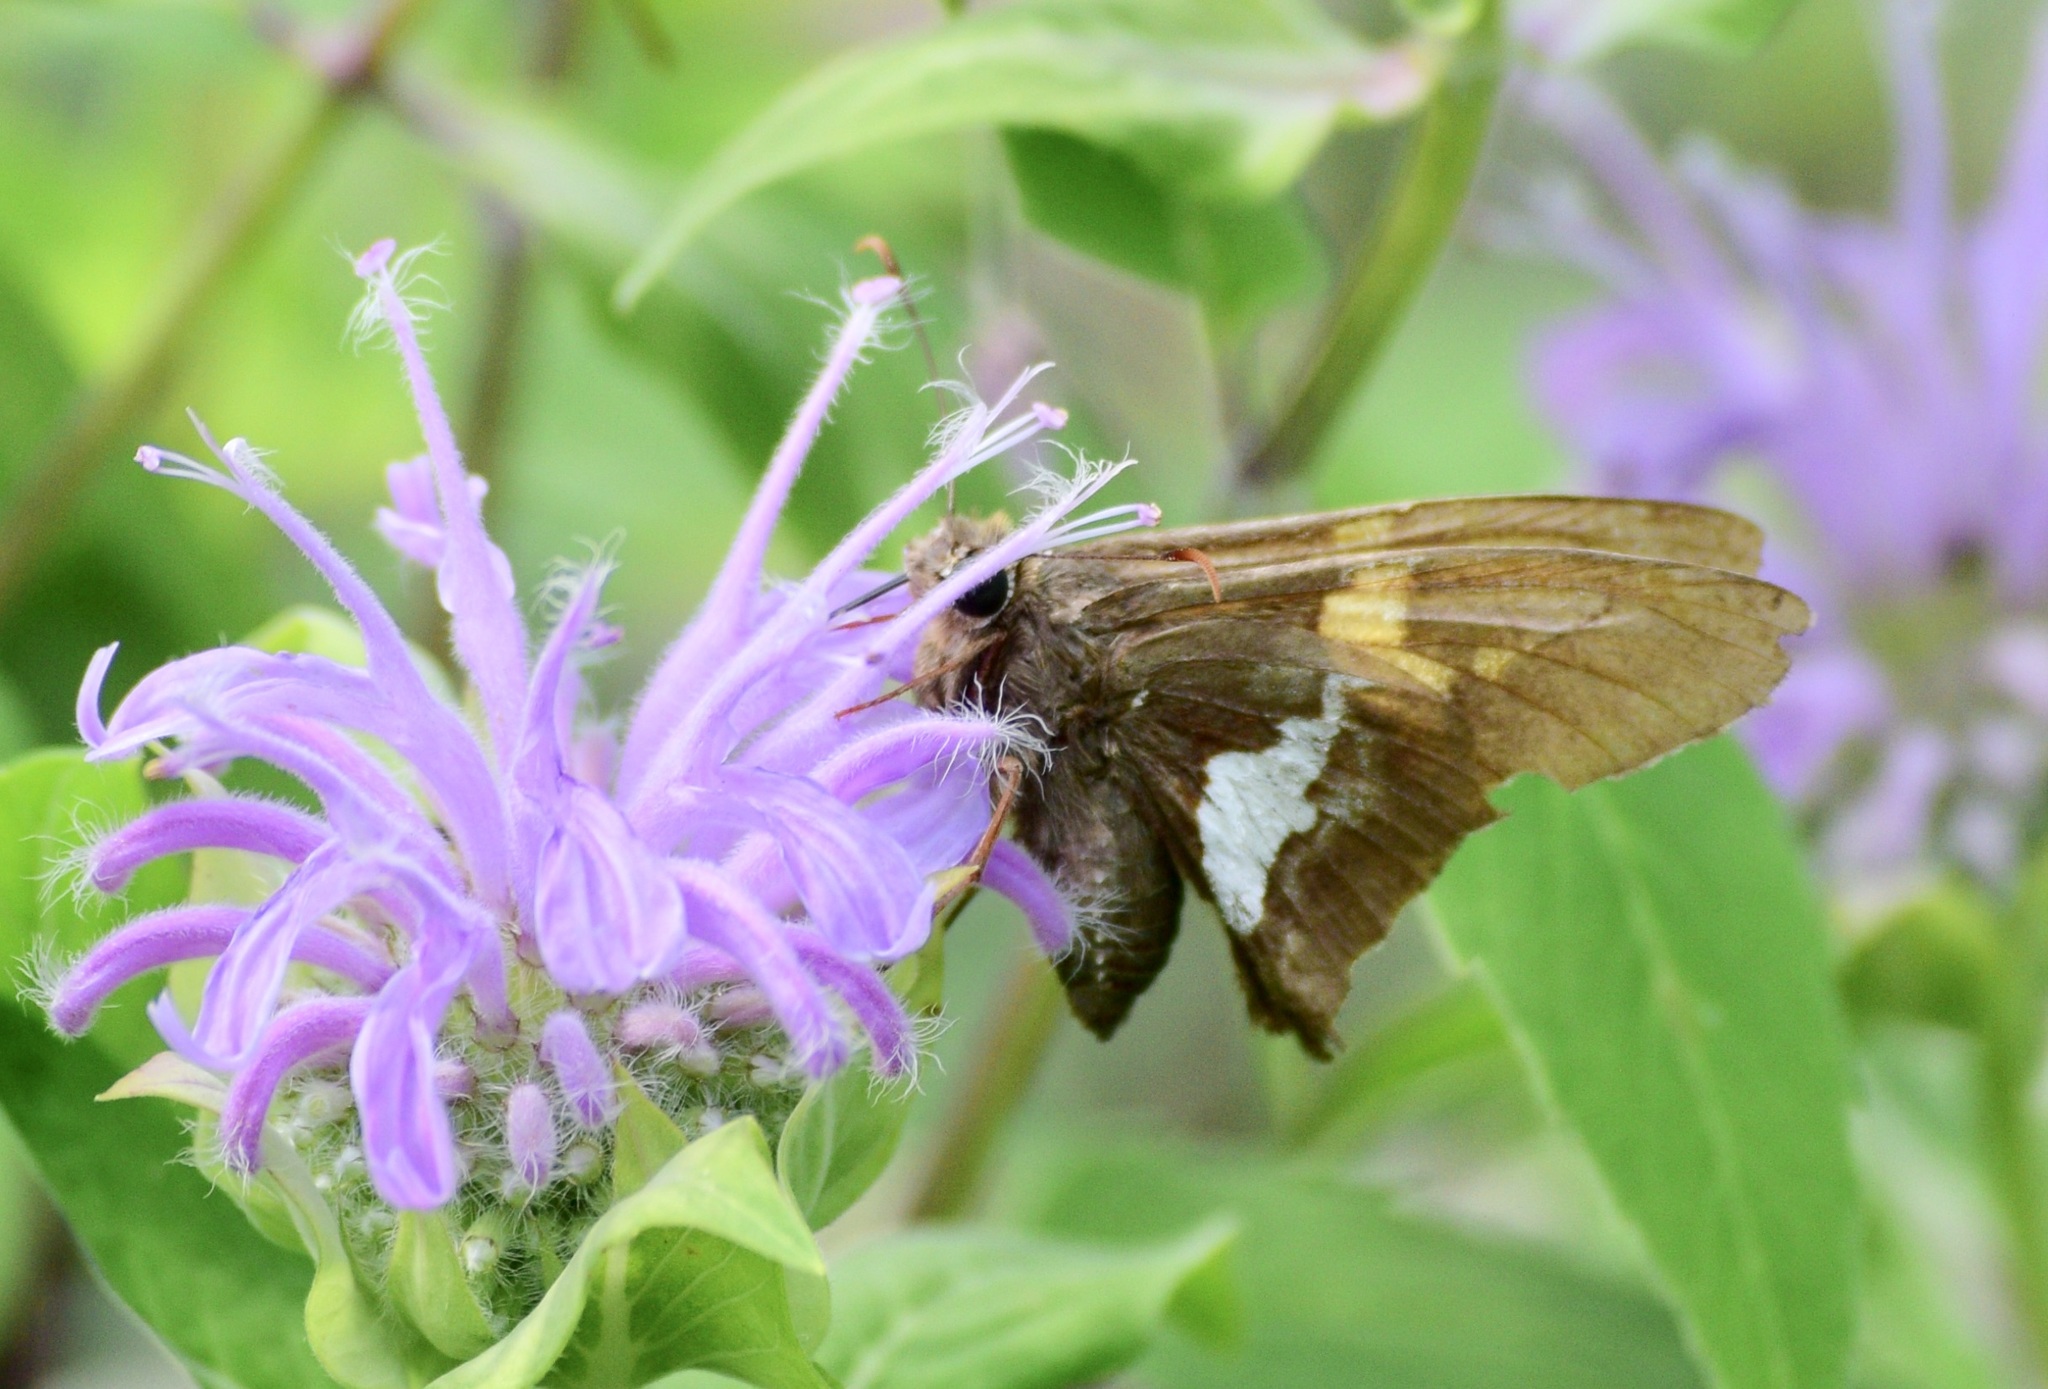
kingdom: Animalia
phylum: Arthropoda
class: Insecta
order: Lepidoptera
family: Hesperiidae
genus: Epargyreus
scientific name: Epargyreus clarus
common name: Silver-spotted skipper
